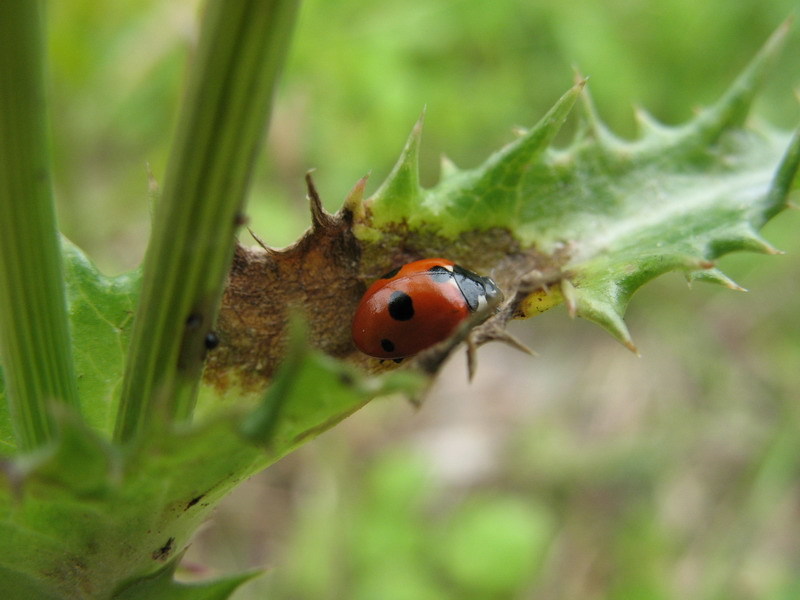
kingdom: Animalia
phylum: Arthropoda
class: Insecta
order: Coleoptera
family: Coccinellidae
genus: Coccinella
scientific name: Coccinella quinquepunctata
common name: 5-spot ladybird
